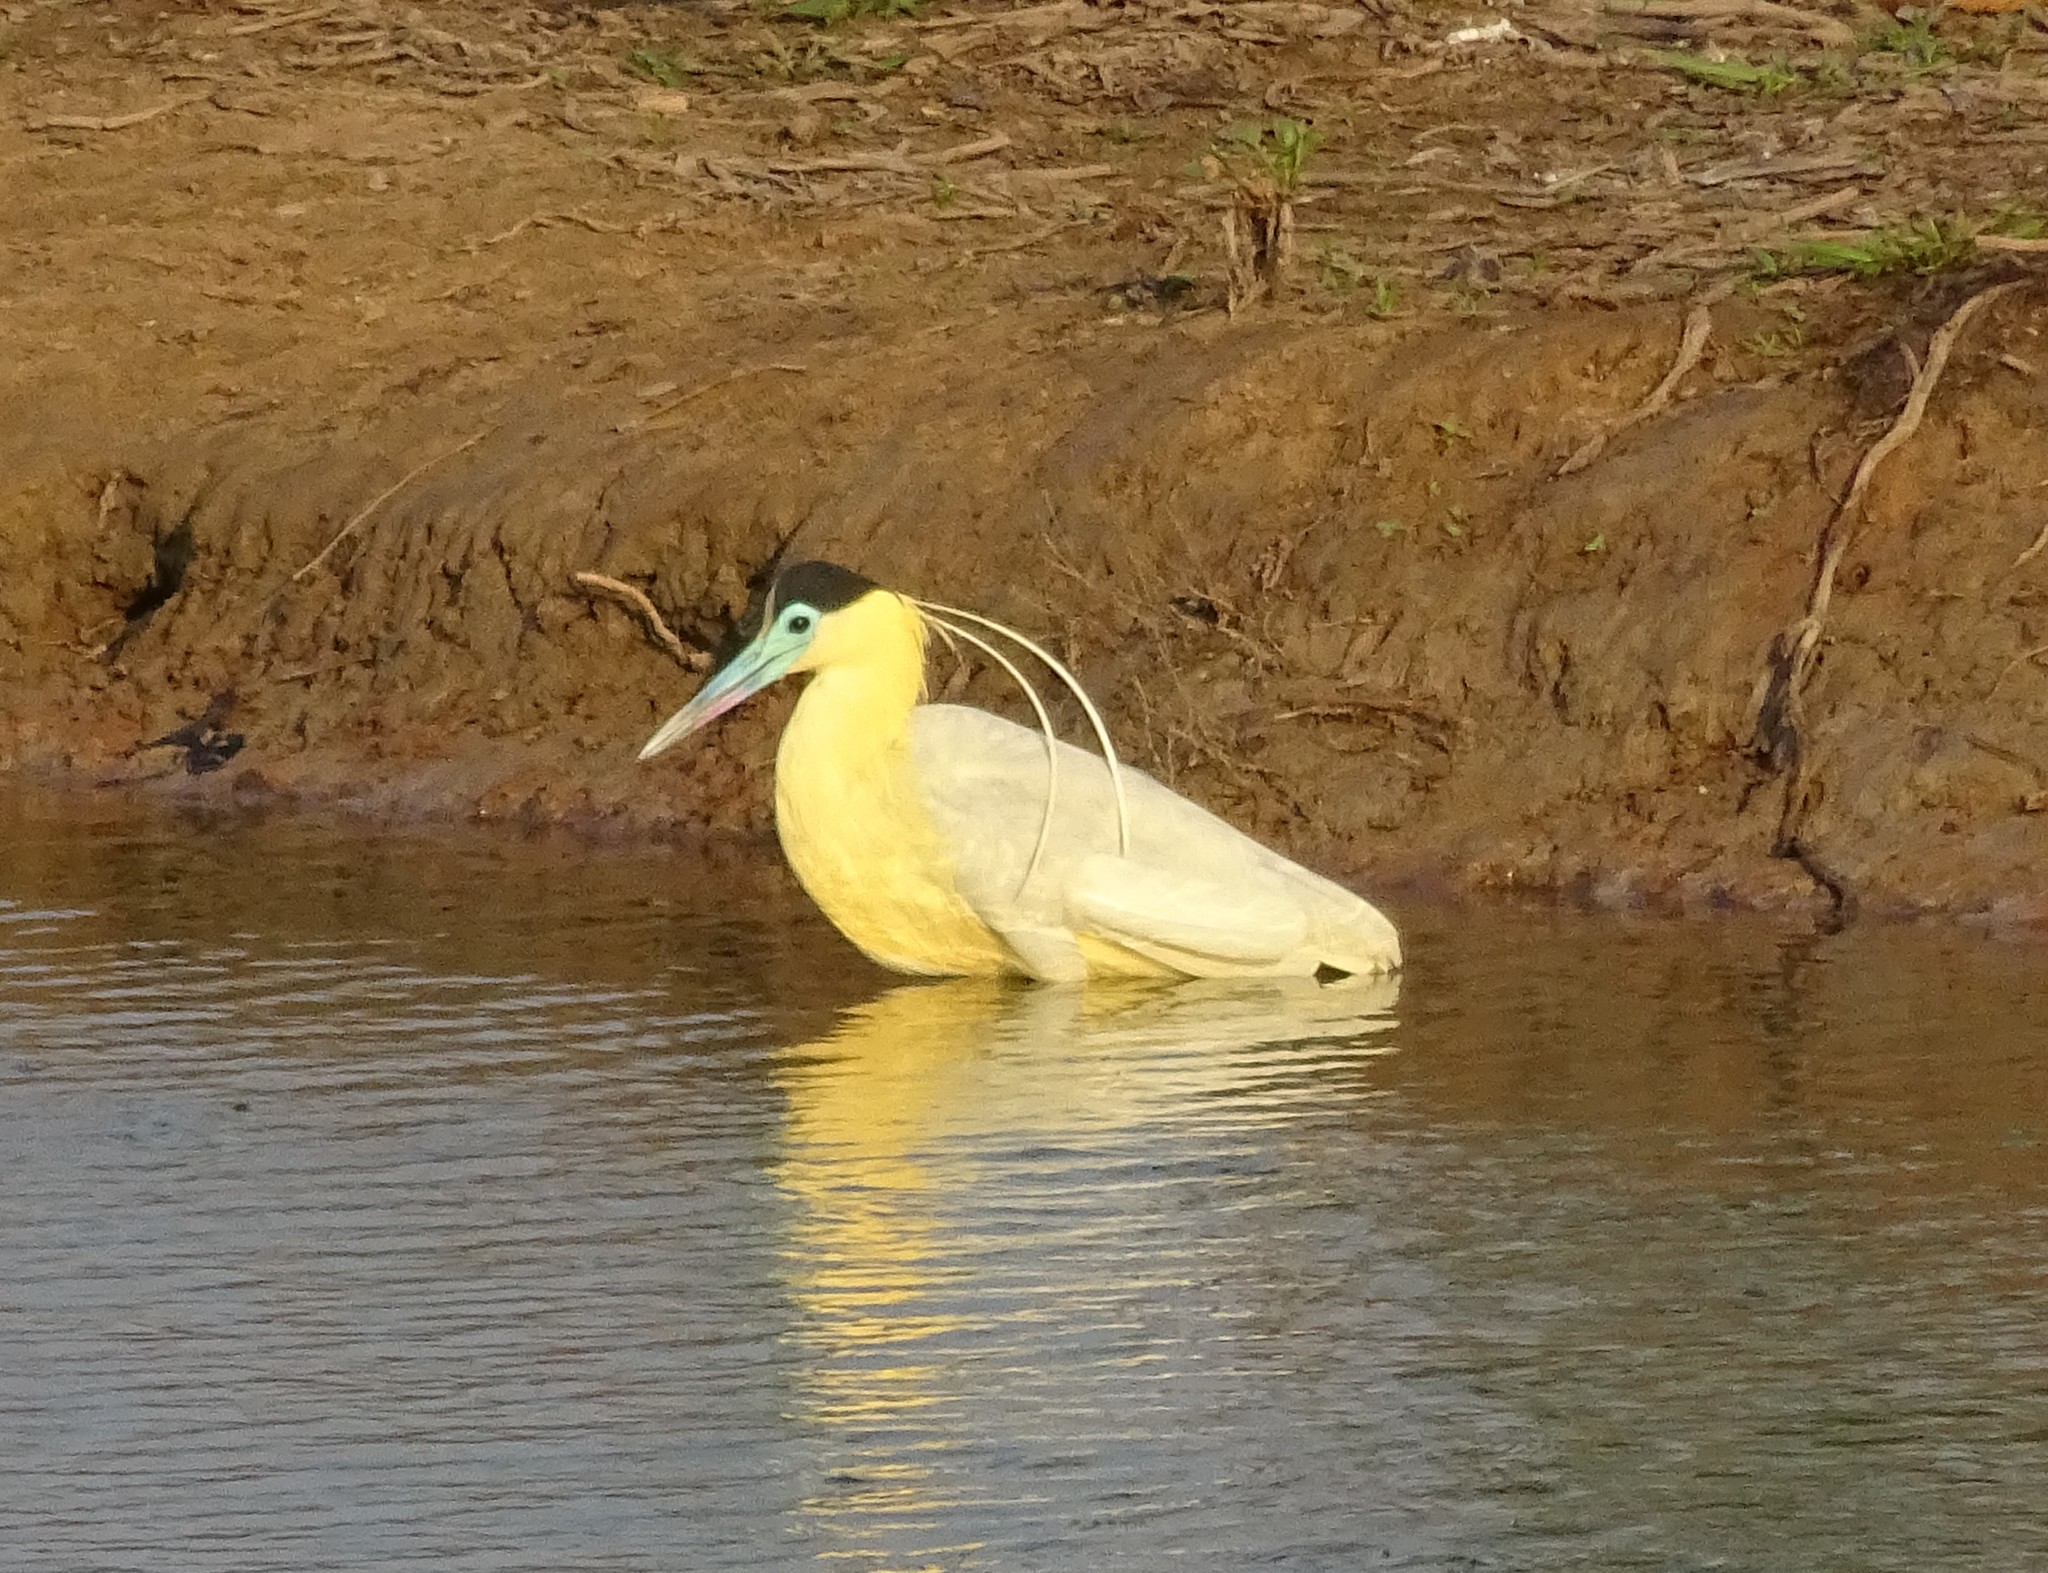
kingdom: Animalia
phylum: Chordata
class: Aves
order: Pelecaniformes
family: Ardeidae
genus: Pilherodius
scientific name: Pilherodius pileatus
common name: Capped heron
